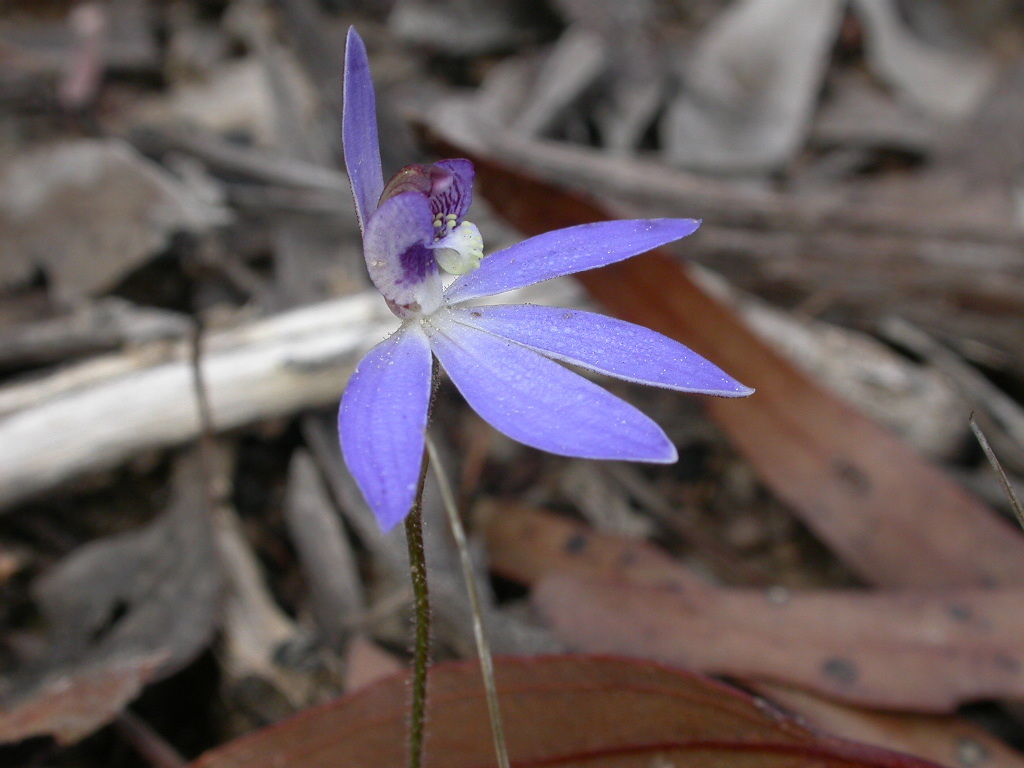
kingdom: Plantae
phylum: Tracheophyta
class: Liliopsida
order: Asparagales
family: Orchidaceae
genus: Caladenia
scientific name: Caladenia caerulea
